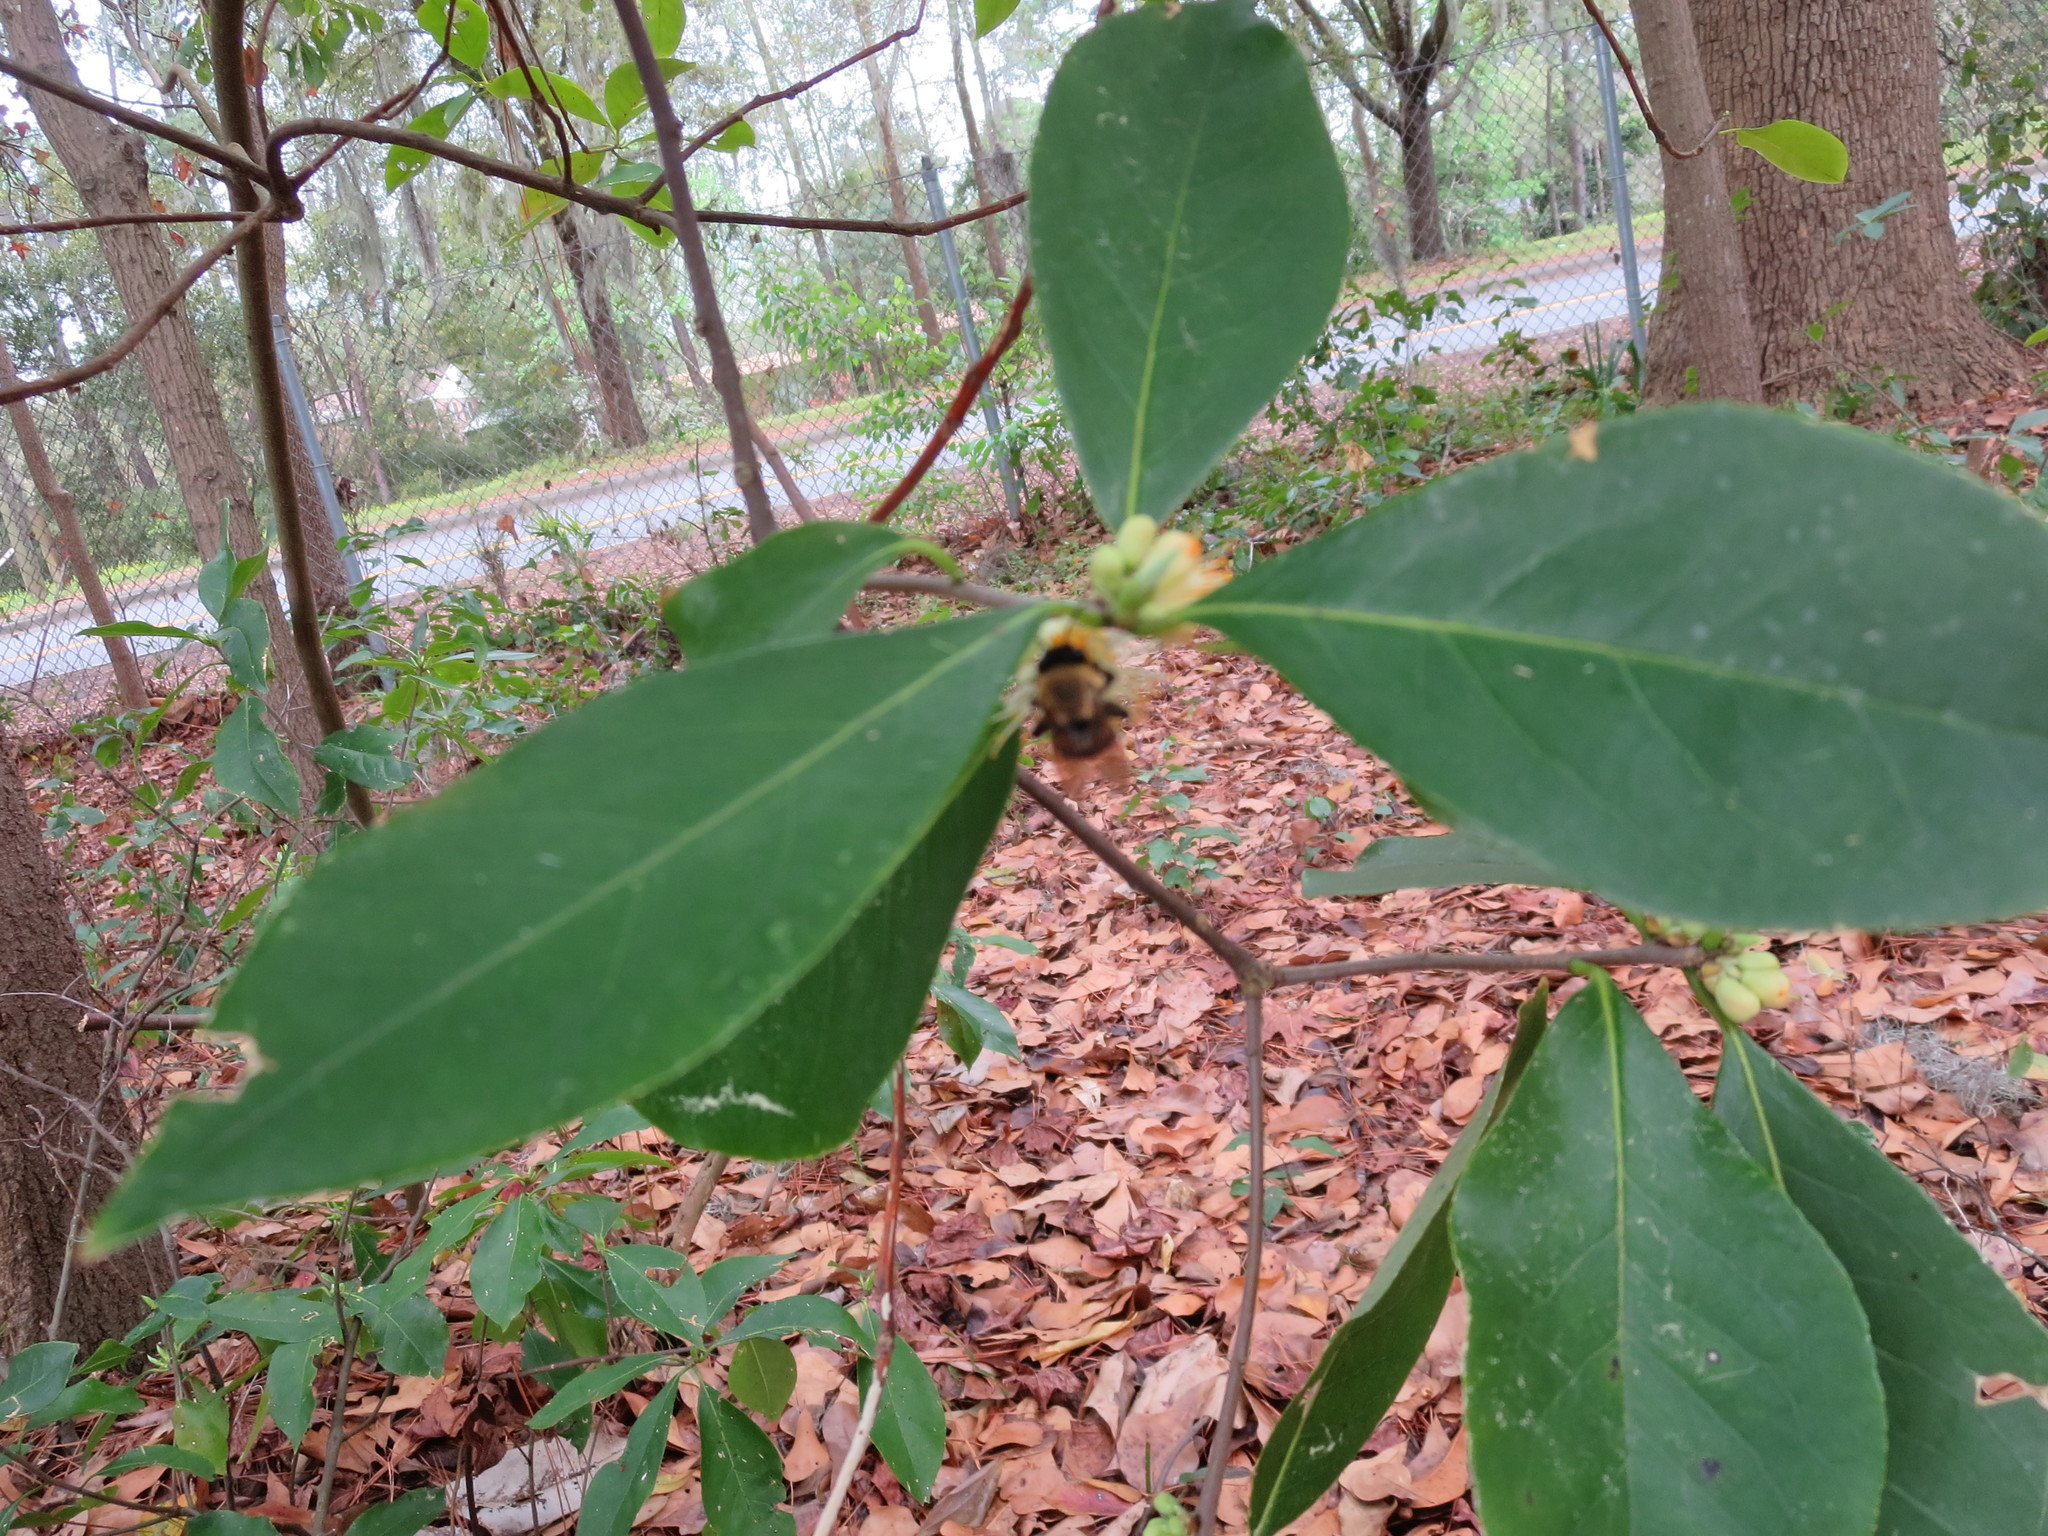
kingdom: Plantae
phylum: Tracheophyta
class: Magnoliopsida
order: Ericales
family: Symplocaceae
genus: Symplocos
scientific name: Symplocos tinctoria
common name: Horse-sugar
